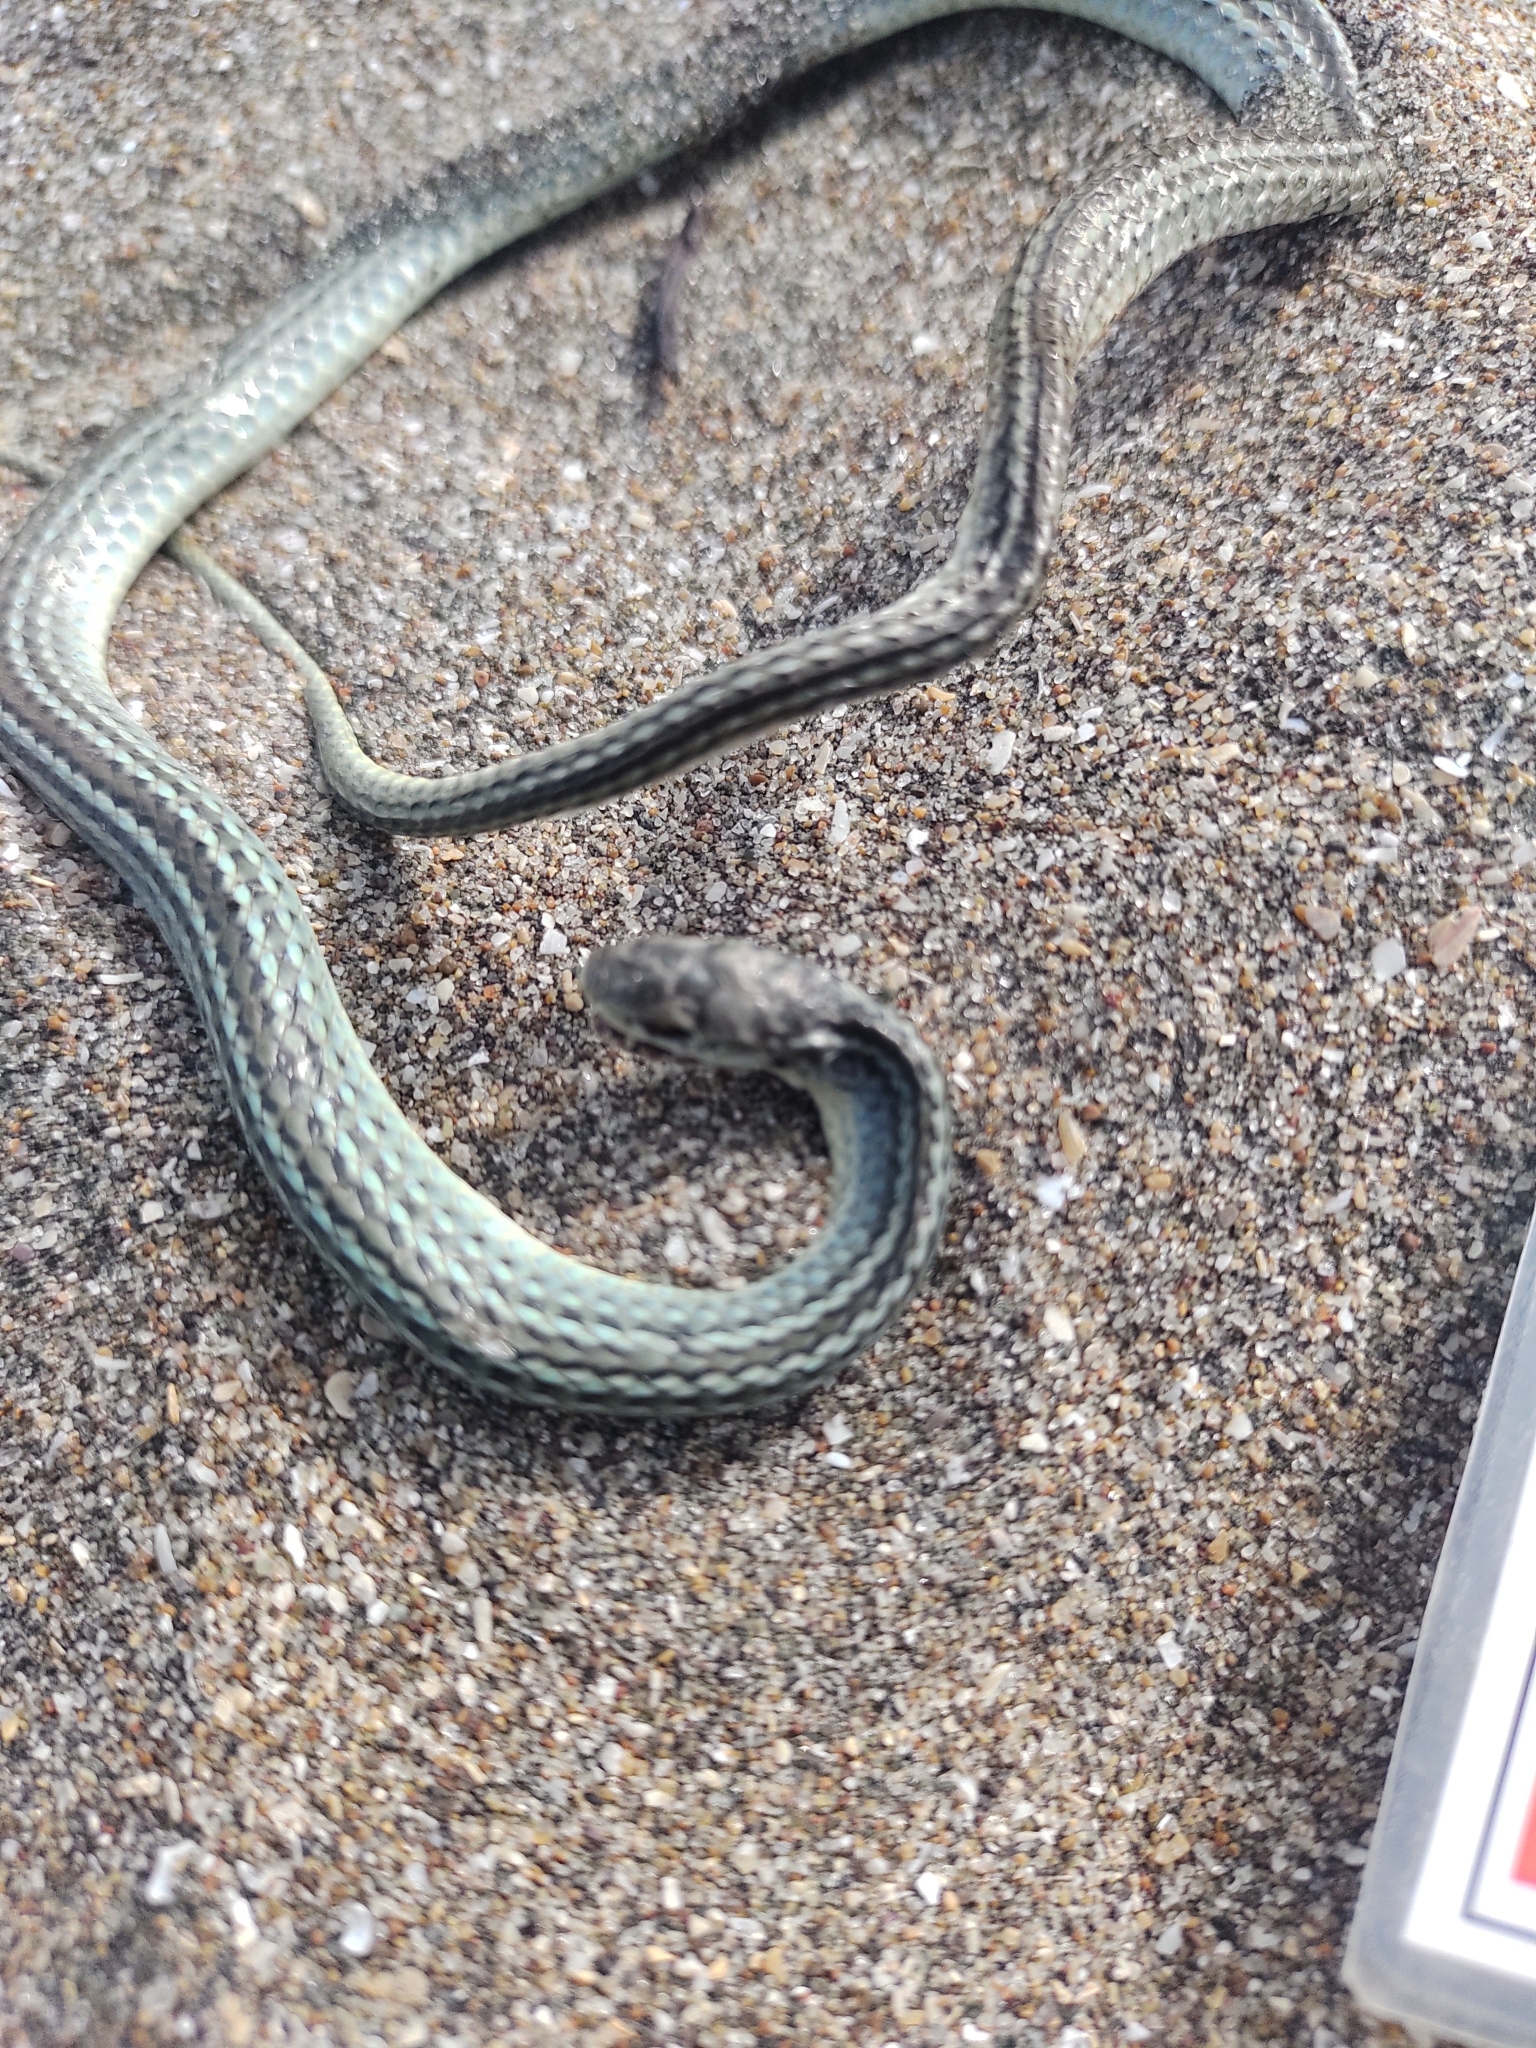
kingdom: Animalia
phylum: Chordata
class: Squamata
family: Colubridae
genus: Philodryas
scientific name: Philodryas agassizii
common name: Burrowing night snake
